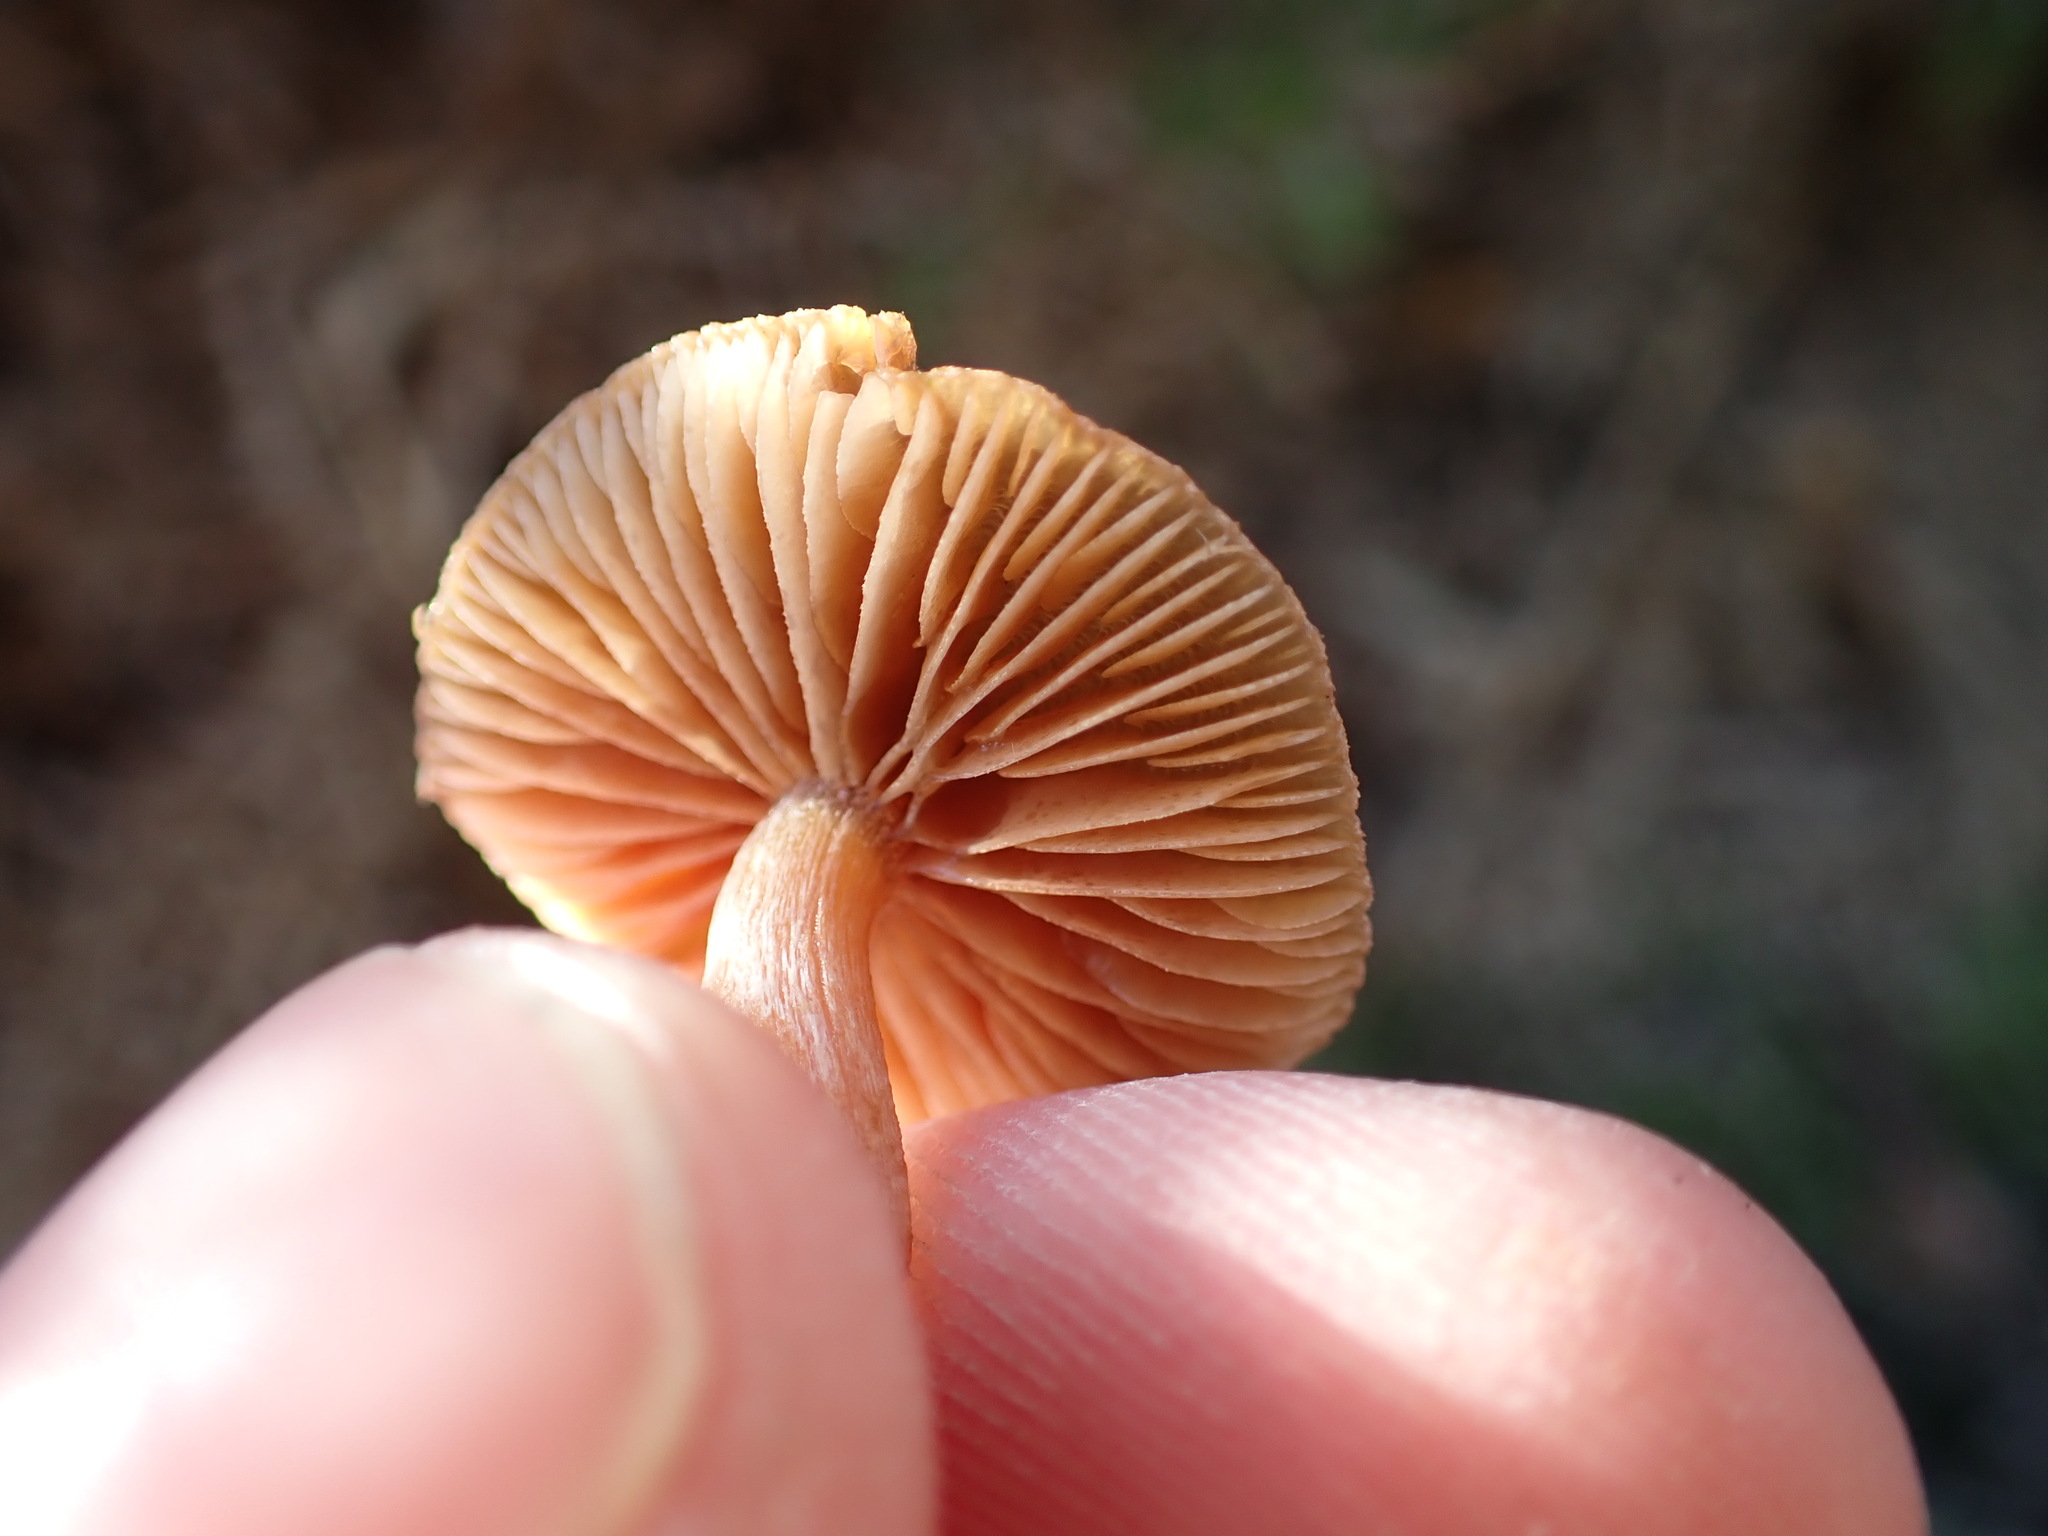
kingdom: Fungi
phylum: Basidiomycota
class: Agaricomycetes
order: Agaricales
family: Tubariaceae
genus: Tubaria
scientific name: Tubaria furfuracea
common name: Scurfy twiglet
